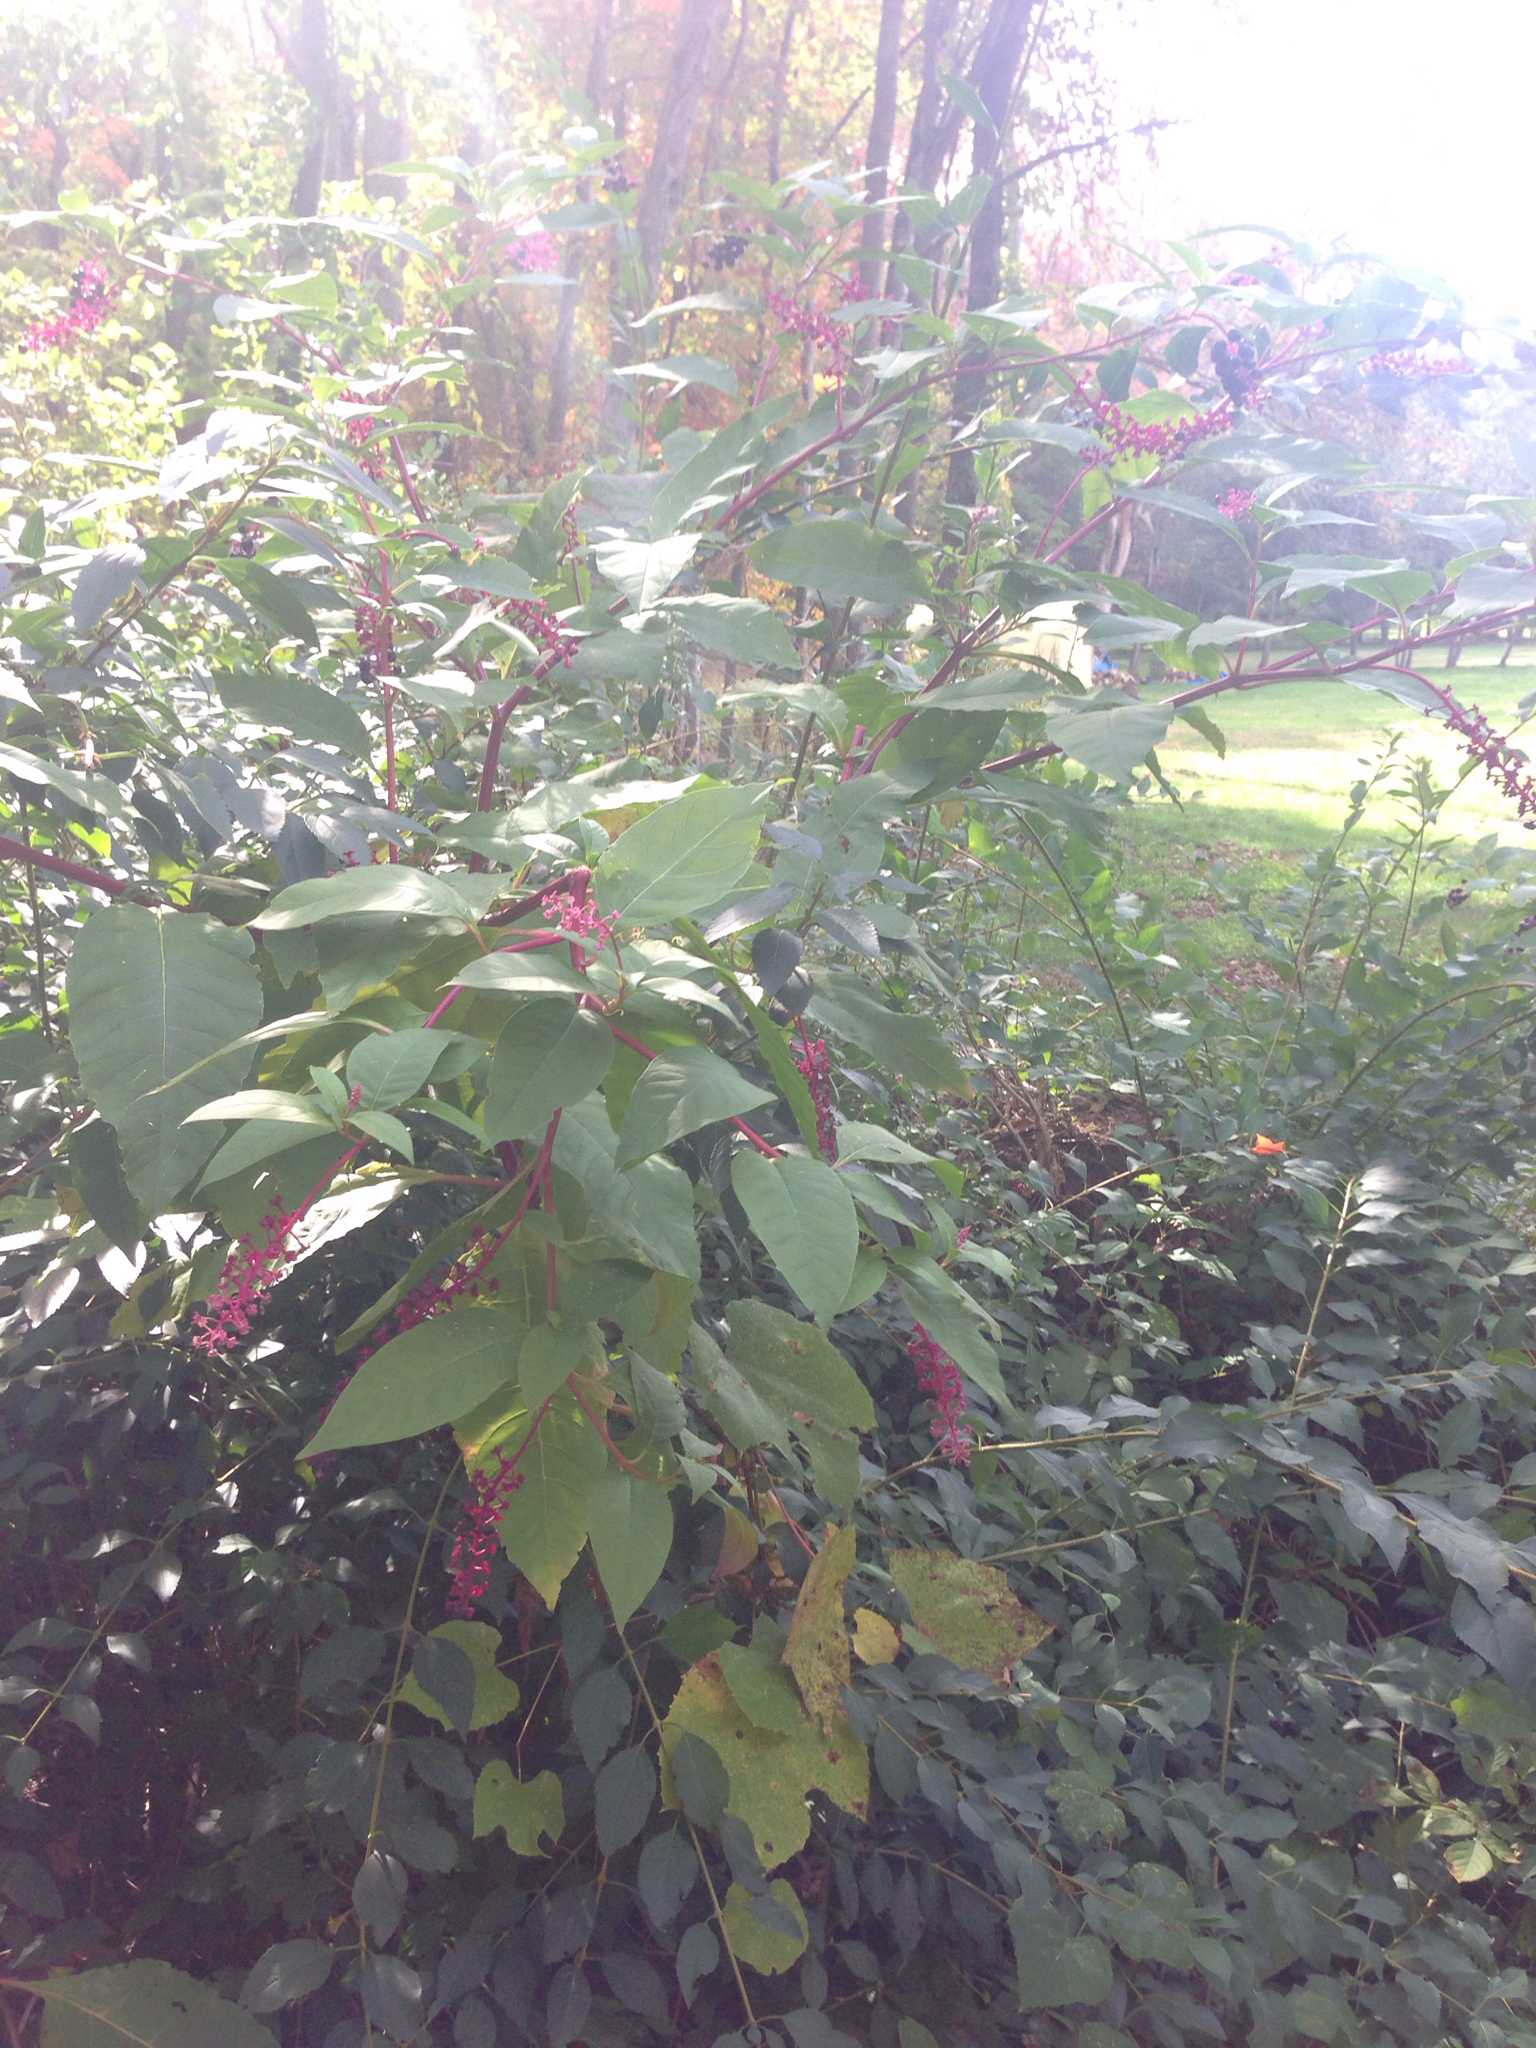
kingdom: Plantae
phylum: Tracheophyta
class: Magnoliopsida
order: Caryophyllales
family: Phytolaccaceae
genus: Phytolacca
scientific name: Phytolacca americana
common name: American pokeweed
